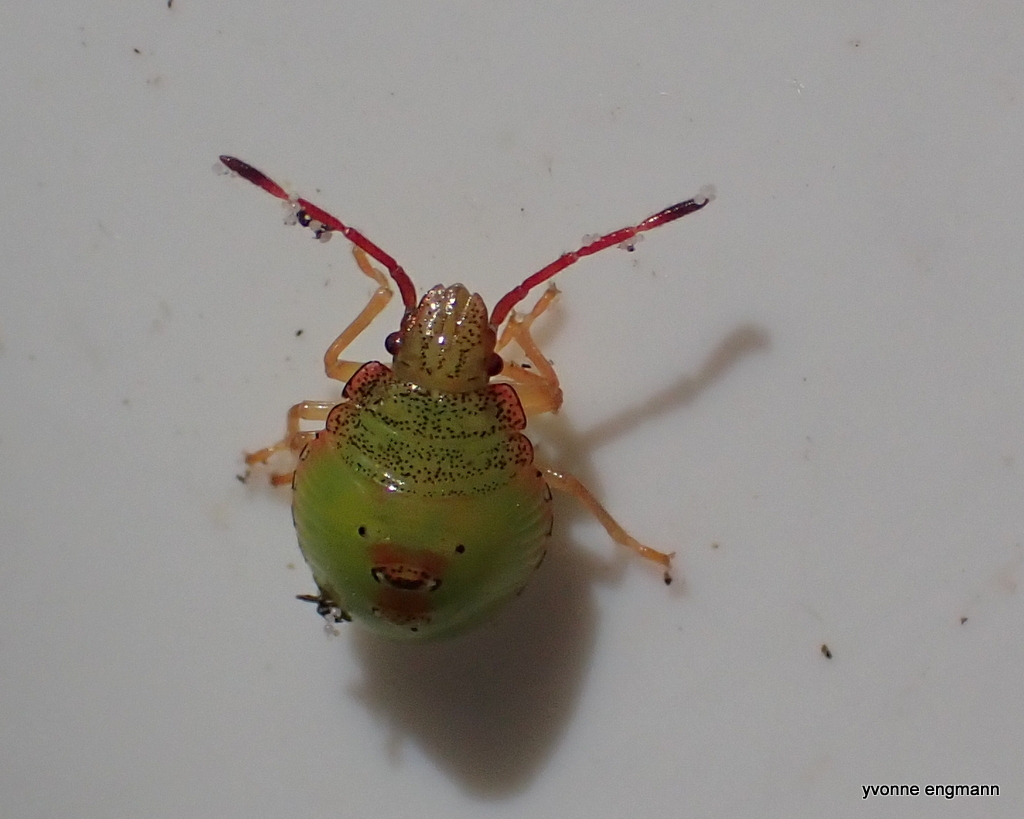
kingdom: Animalia
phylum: Arthropoda
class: Insecta
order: Hemiptera
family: Acanthosomatidae
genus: Acanthosoma
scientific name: Acanthosoma haemorrhoidale
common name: Hawthorn shieldbug
